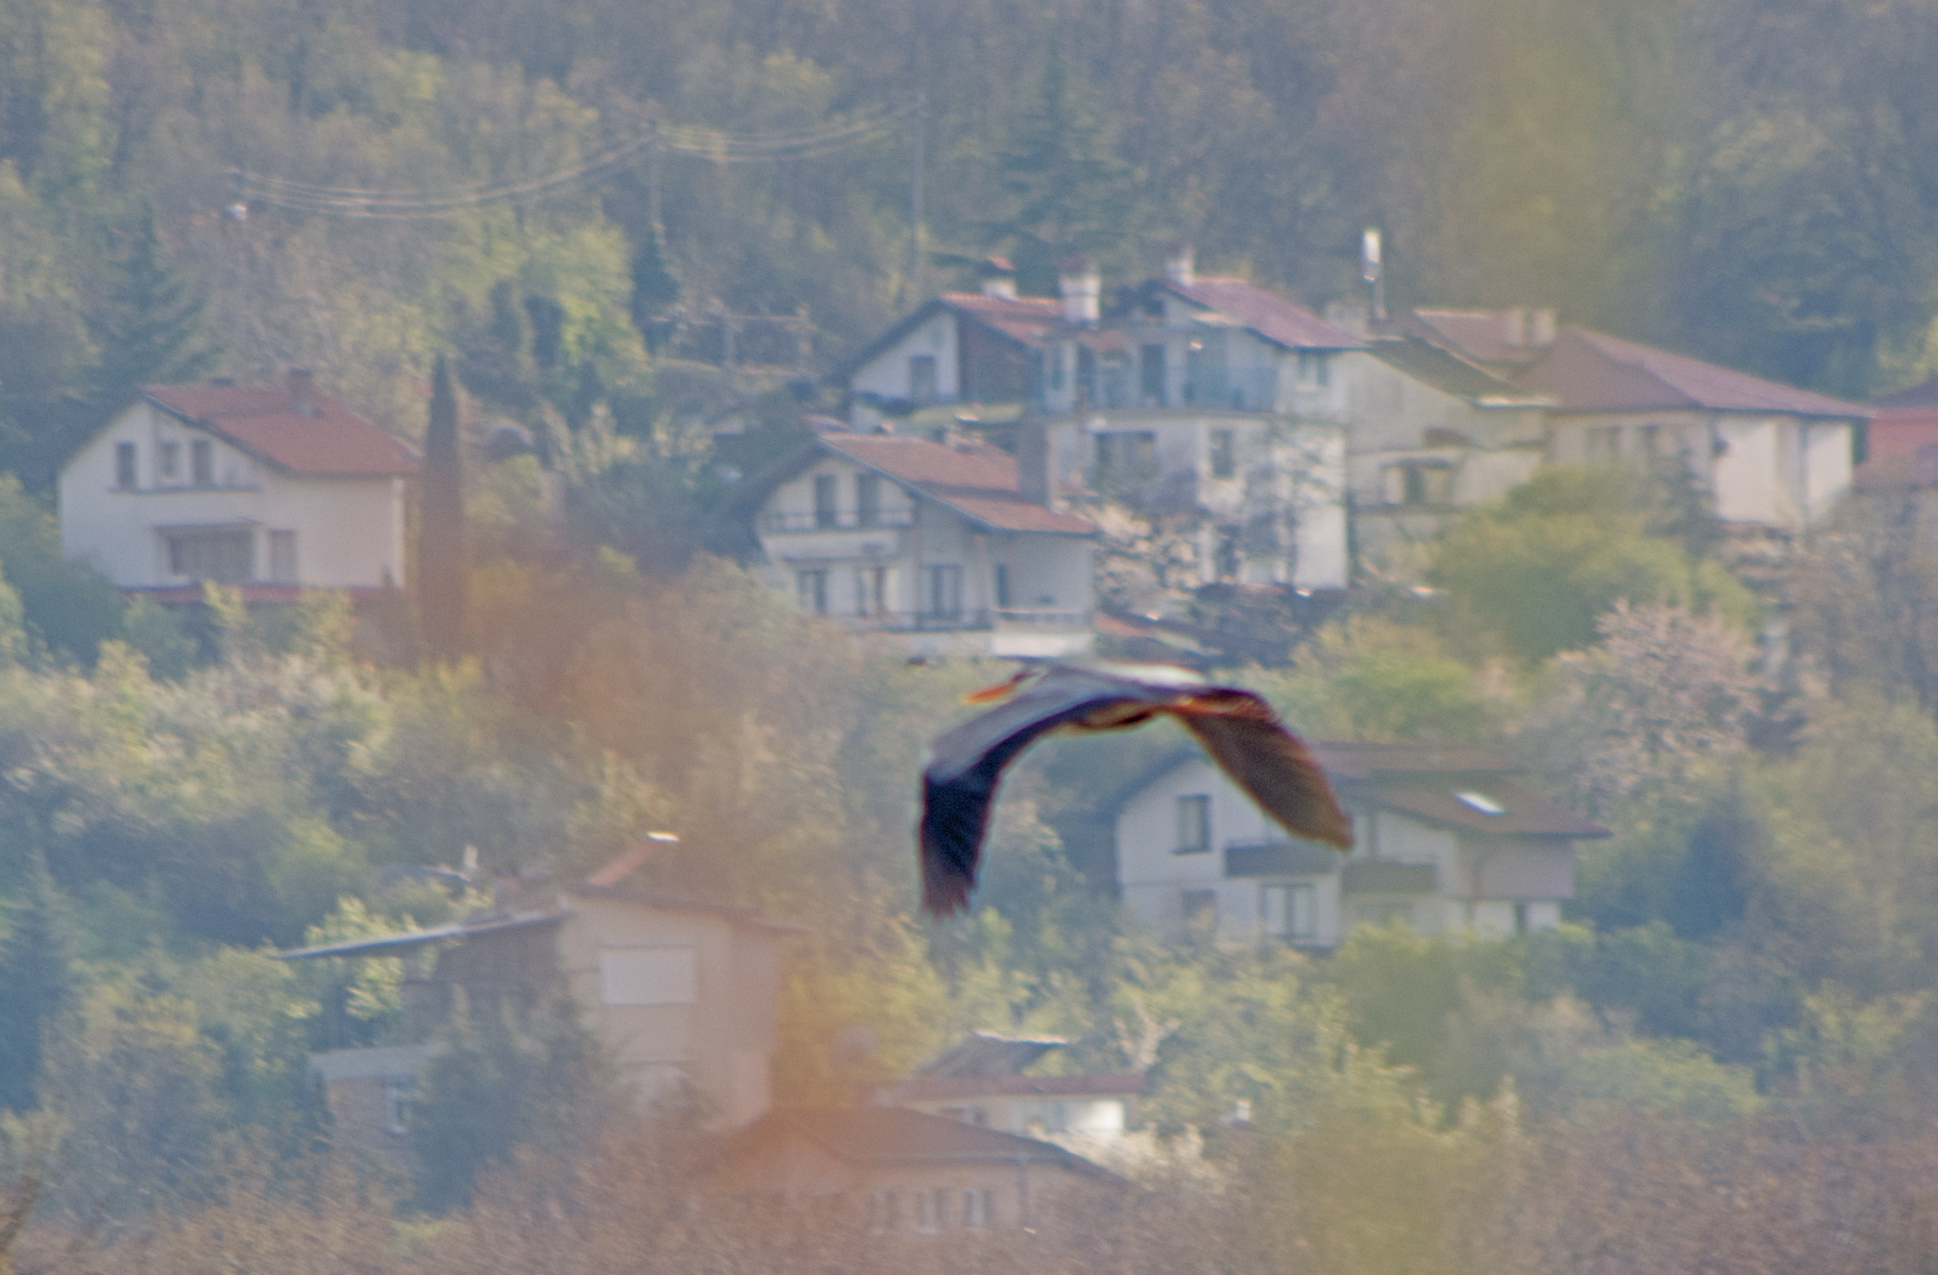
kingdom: Animalia
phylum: Chordata
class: Aves
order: Pelecaniformes
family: Ardeidae
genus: Ardea
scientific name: Ardea cinerea
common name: Grey heron
